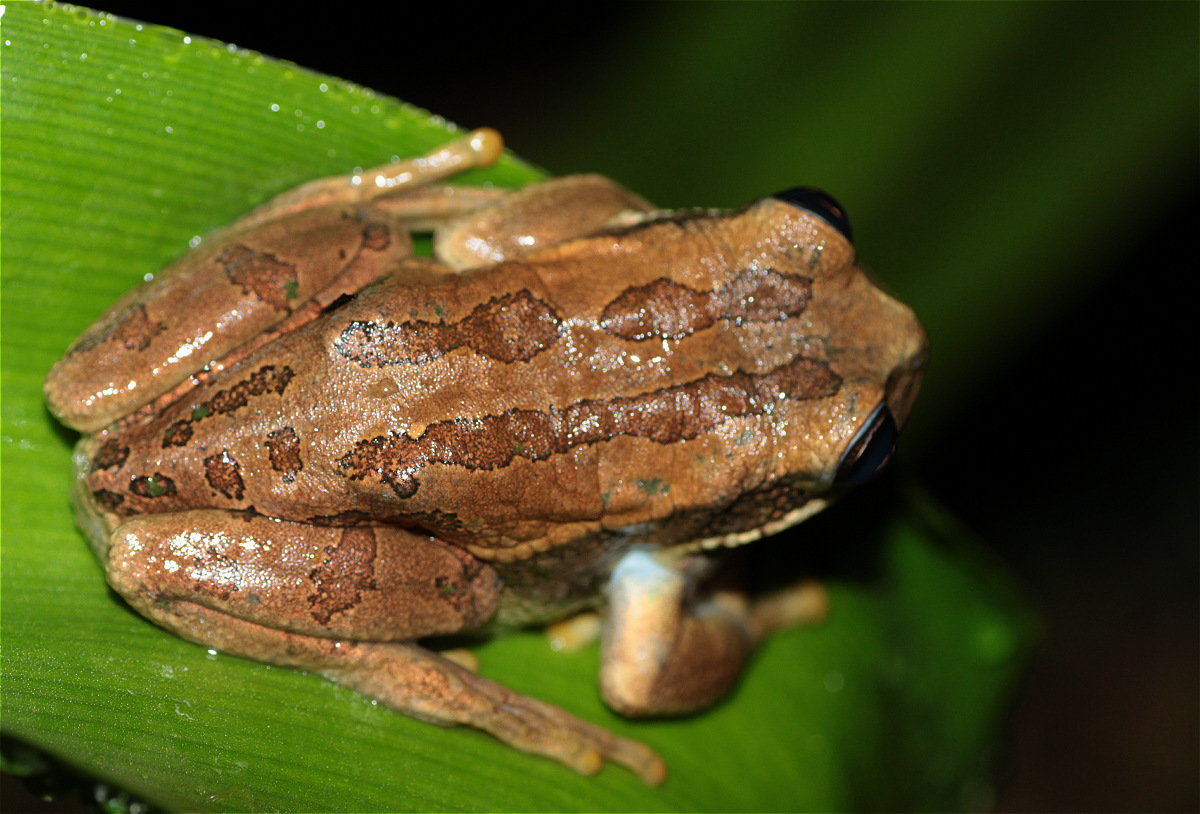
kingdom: Animalia
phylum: Chordata
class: Amphibia
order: Anura
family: Hemiphractidae
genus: Gastrotheca
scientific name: Gastrotheca cuencana
